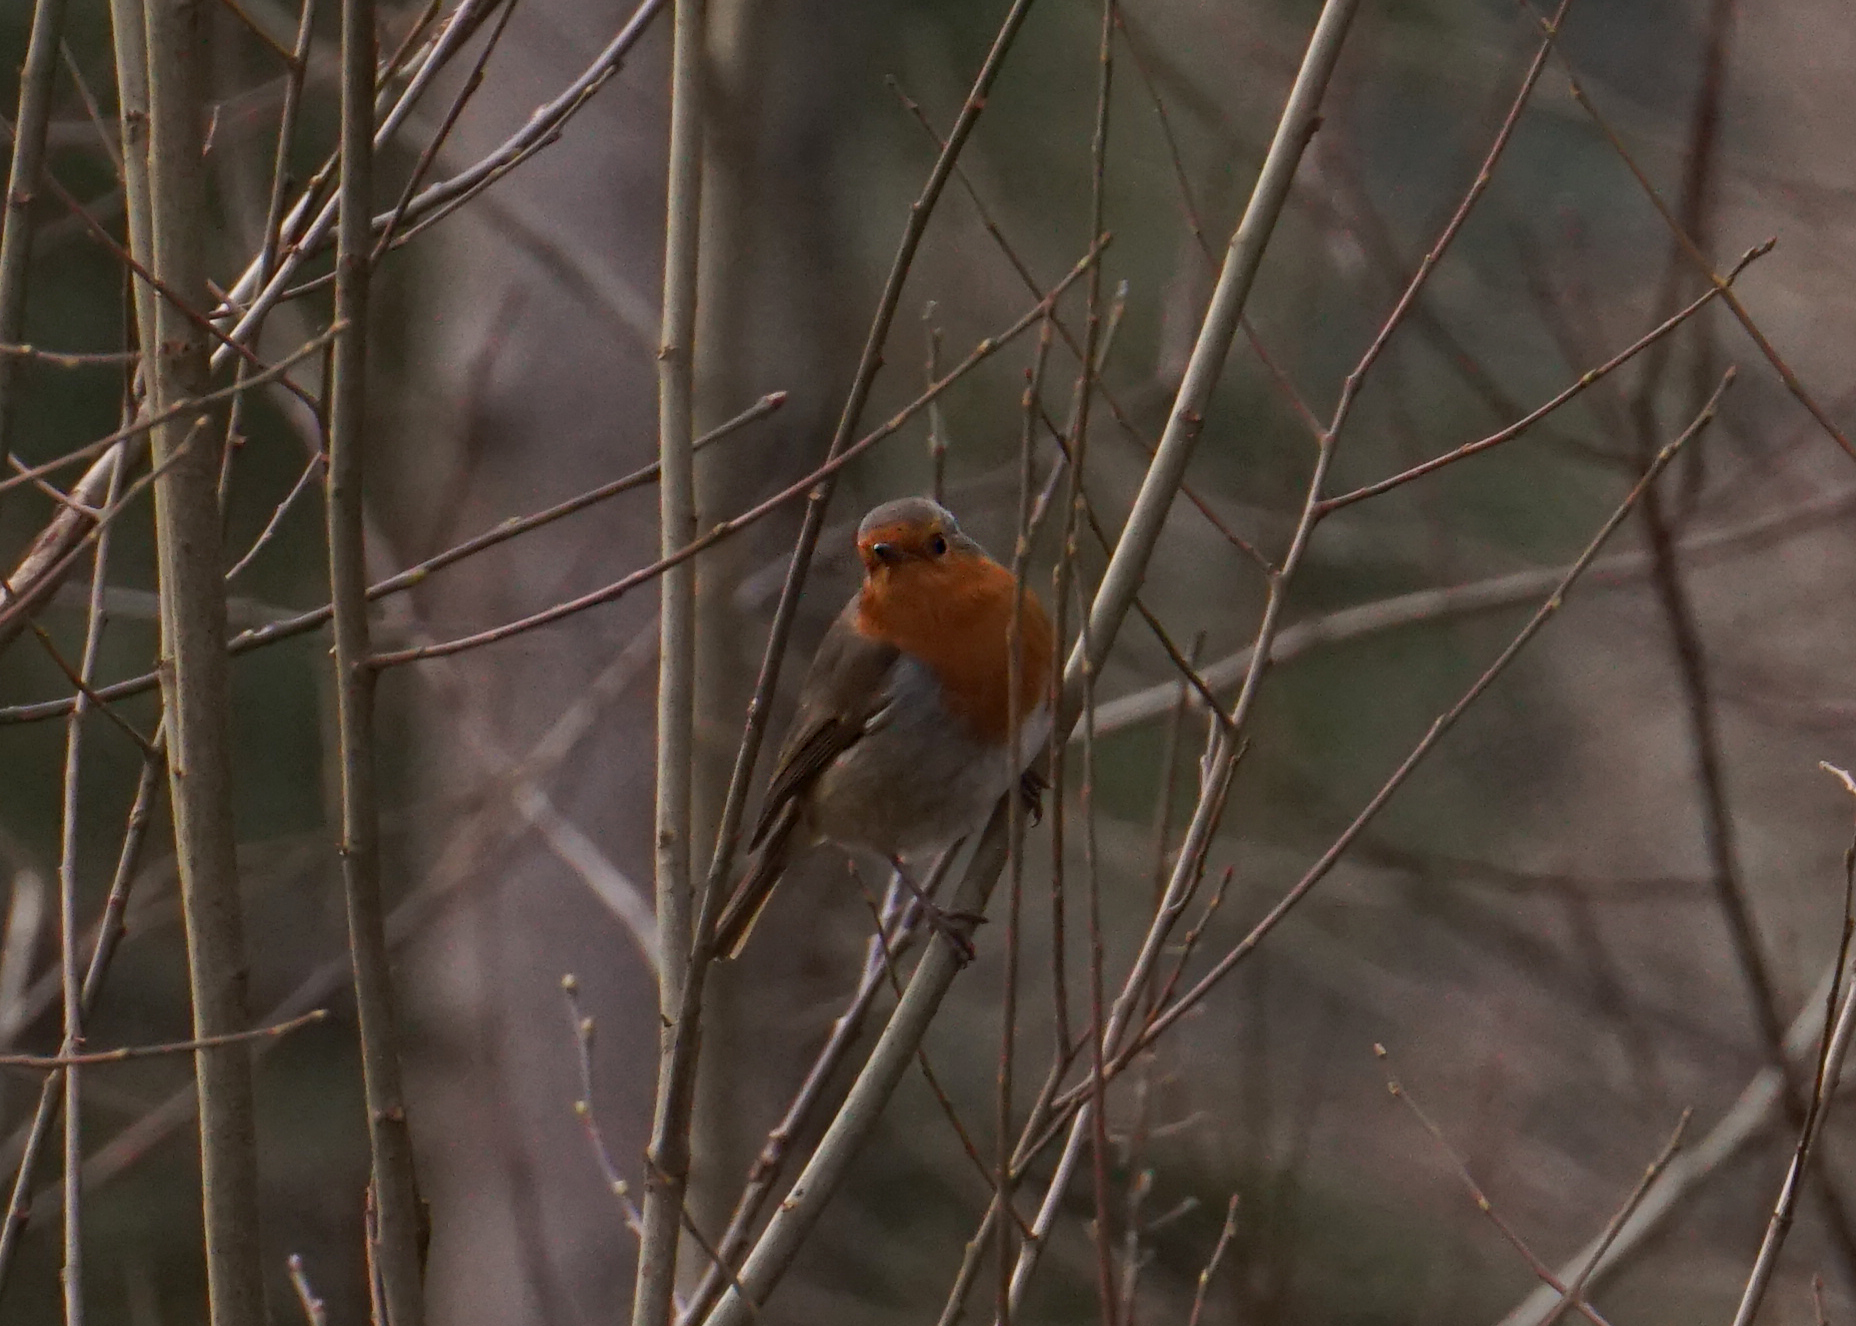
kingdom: Animalia
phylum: Chordata
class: Aves
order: Passeriformes
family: Muscicapidae
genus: Erithacus
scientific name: Erithacus rubecula
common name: European robin
